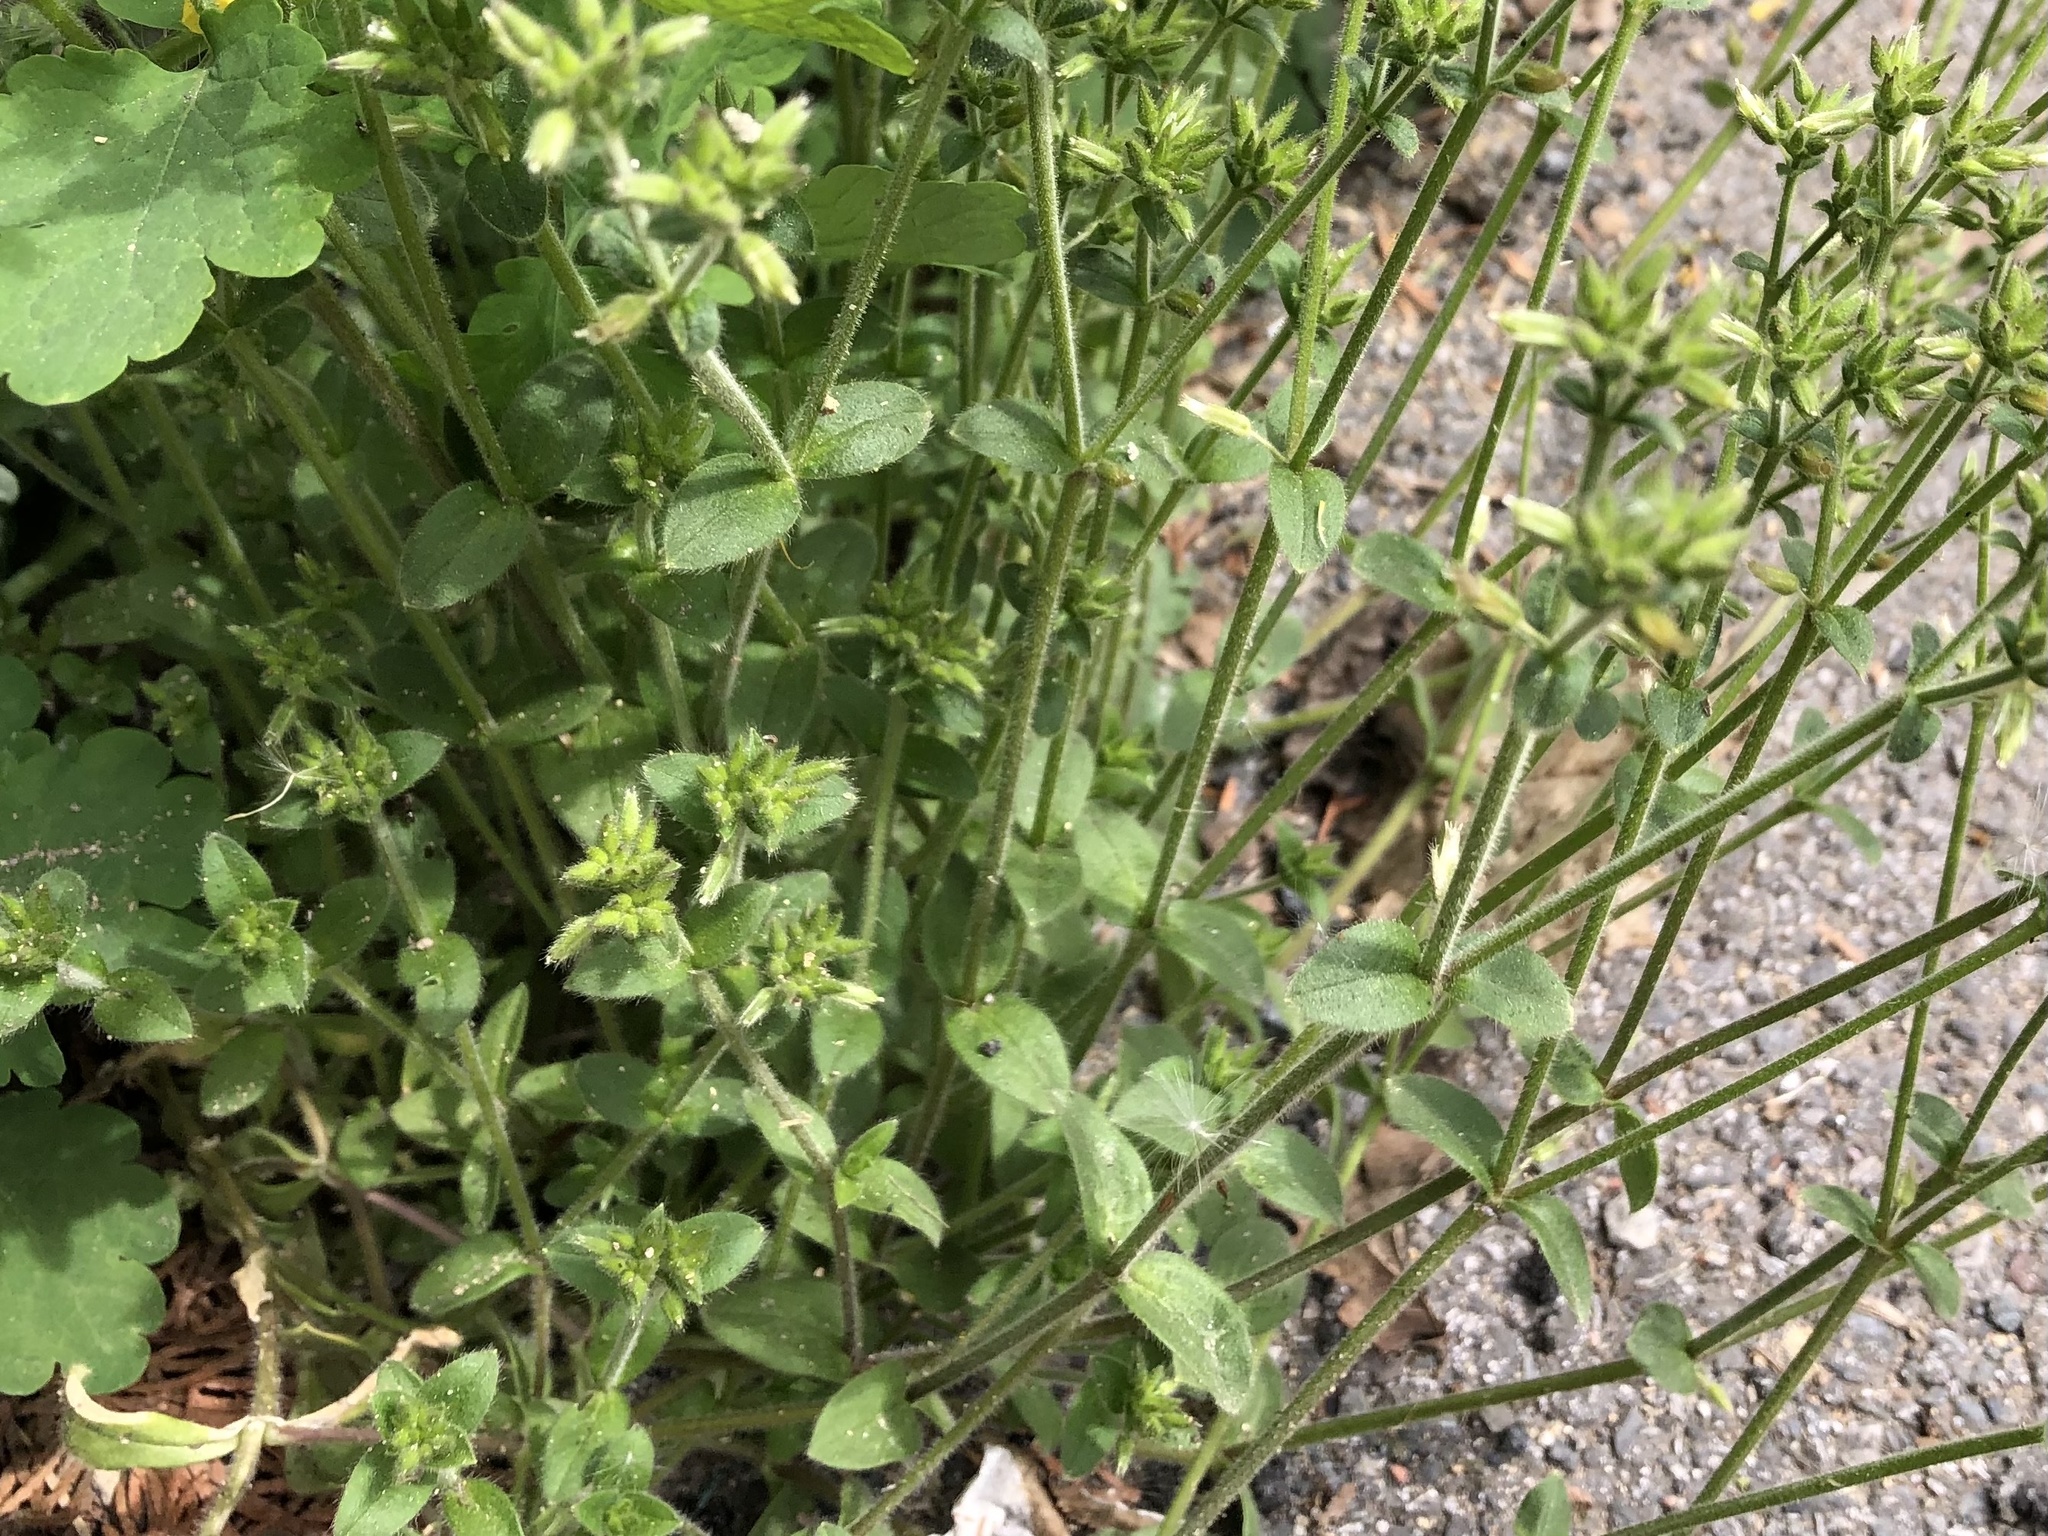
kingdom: Plantae
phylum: Tracheophyta
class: Magnoliopsida
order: Caryophyllales
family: Caryophyllaceae
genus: Cerastium
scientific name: Cerastium glomeratum
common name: Sticky chickweed
